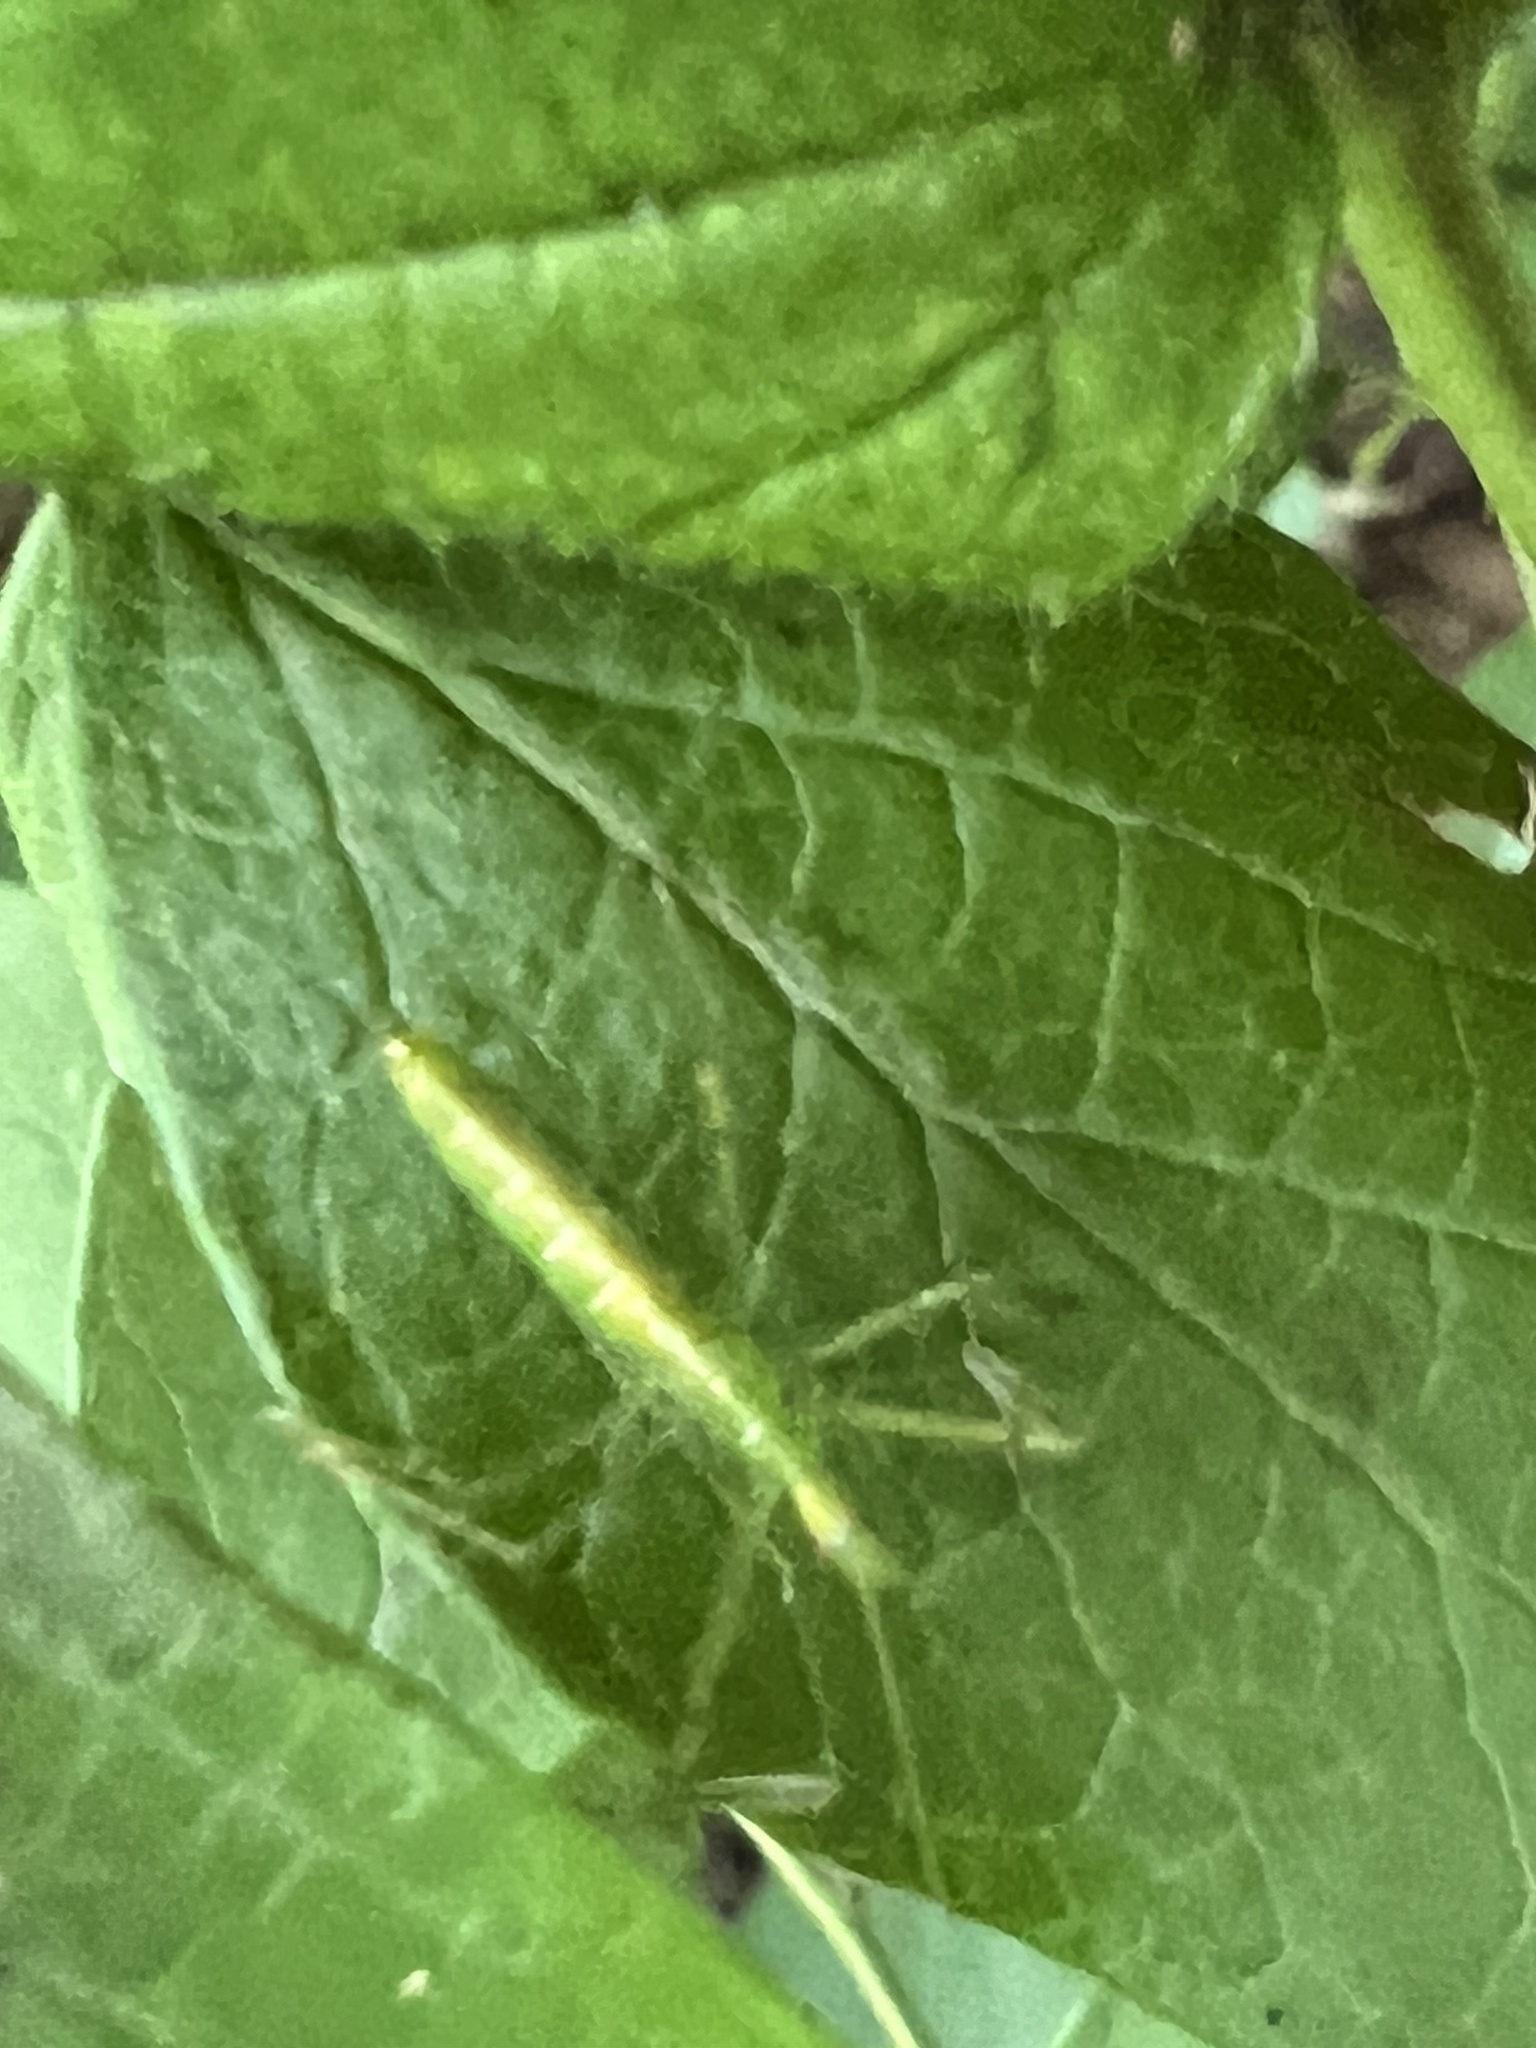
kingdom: Animalia
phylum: Arthropoda
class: Insecta
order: Hemiptera
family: Reduviidae
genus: Zelus
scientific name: Zelus luridus
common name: Pale green assassin bug
